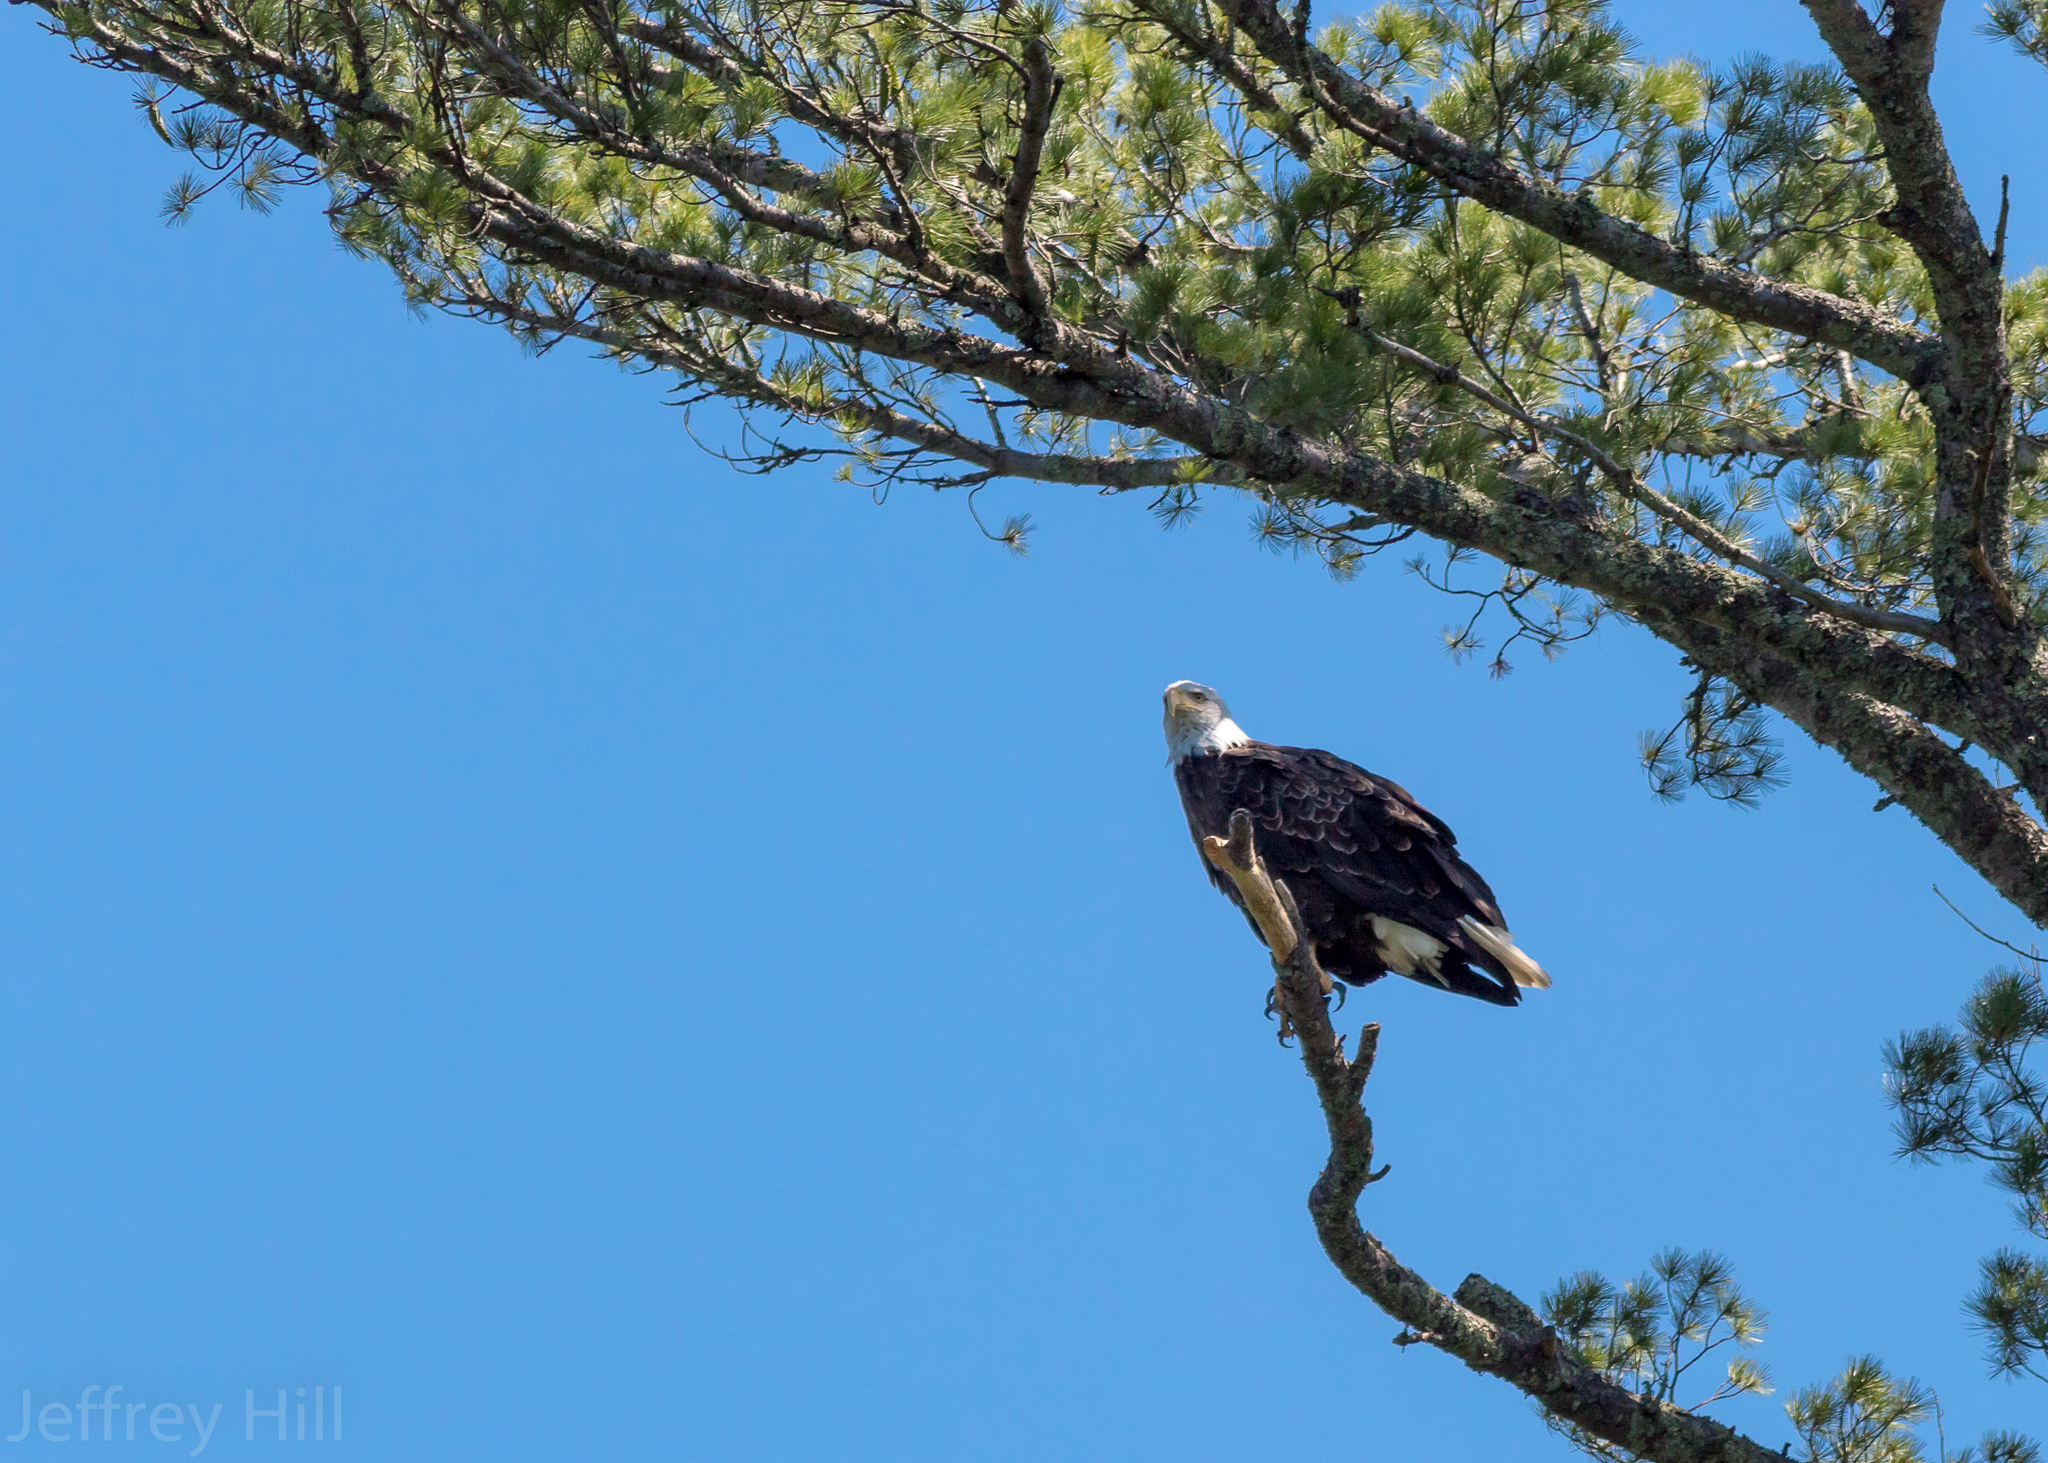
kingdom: Animalia
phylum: Chordata
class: Aves
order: Accipitriformes
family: Accipitridae
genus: Haliaeetus
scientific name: Haliaeetus leucocephalus
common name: Bald eagle
